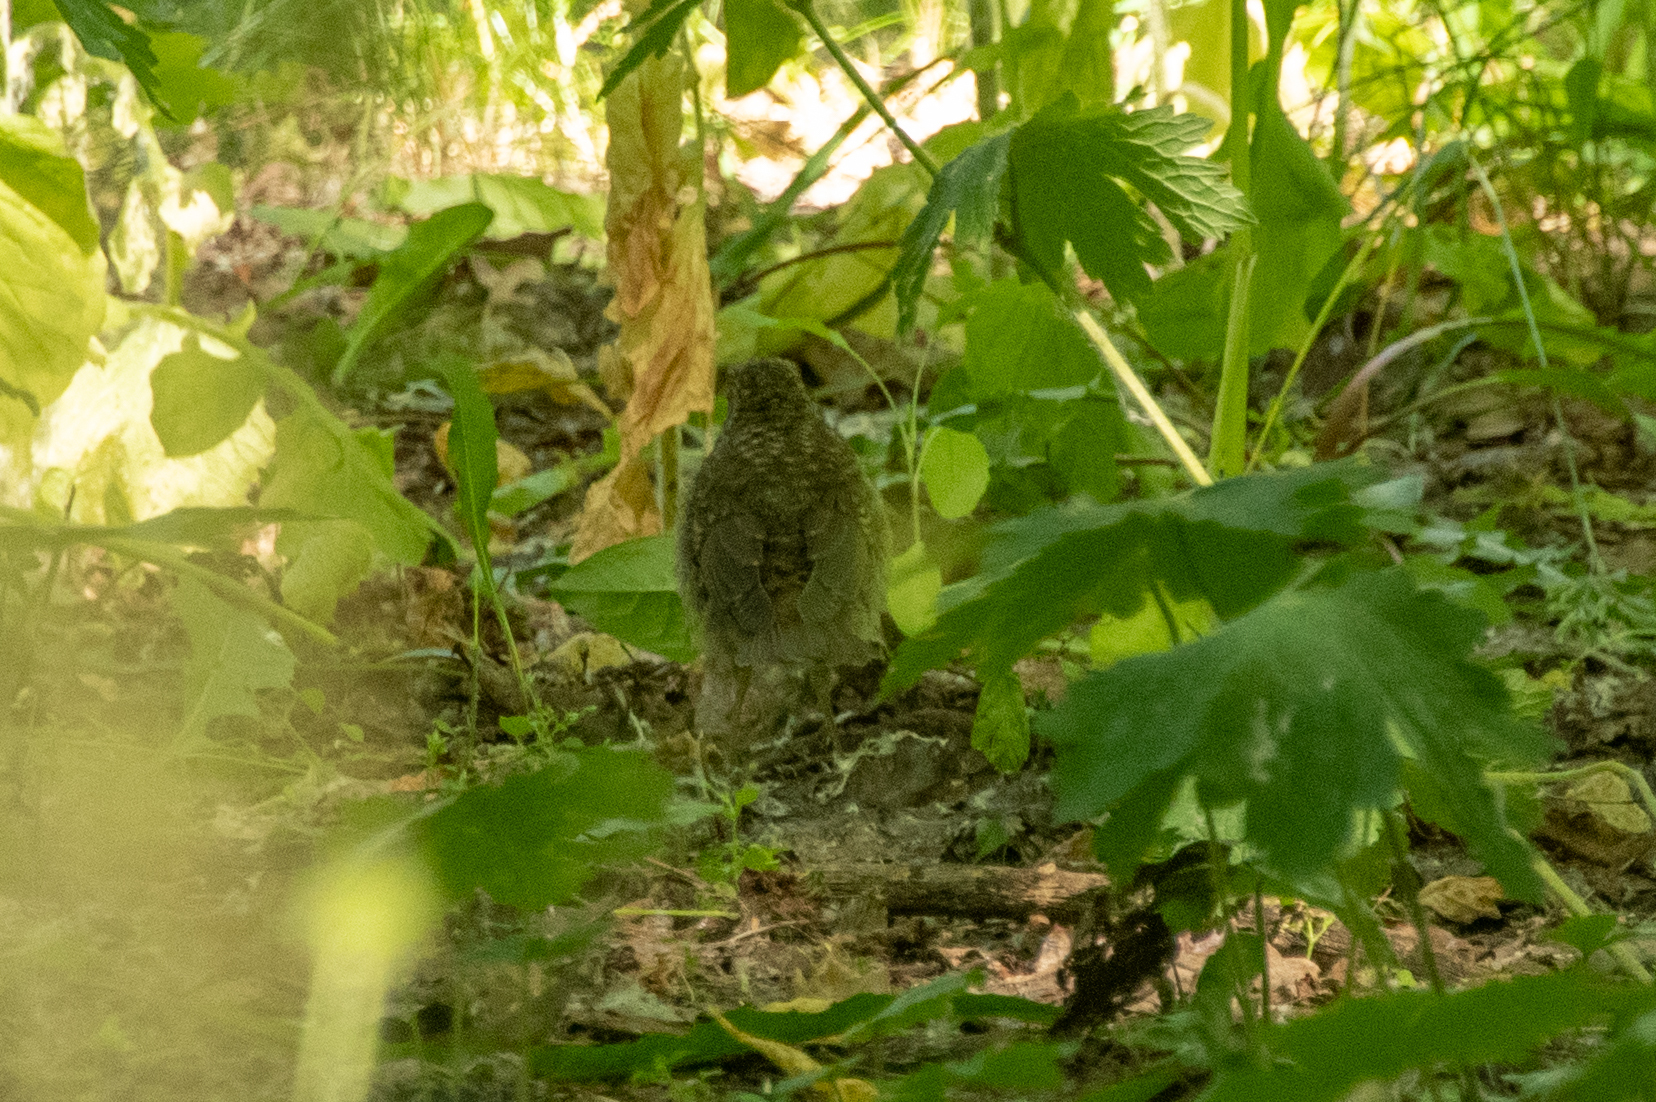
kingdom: Animalia
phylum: Chordata
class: Aves
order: Passeriformes
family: Muscicapidae
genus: Erithacus
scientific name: Erithacus rubecula
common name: European robin
